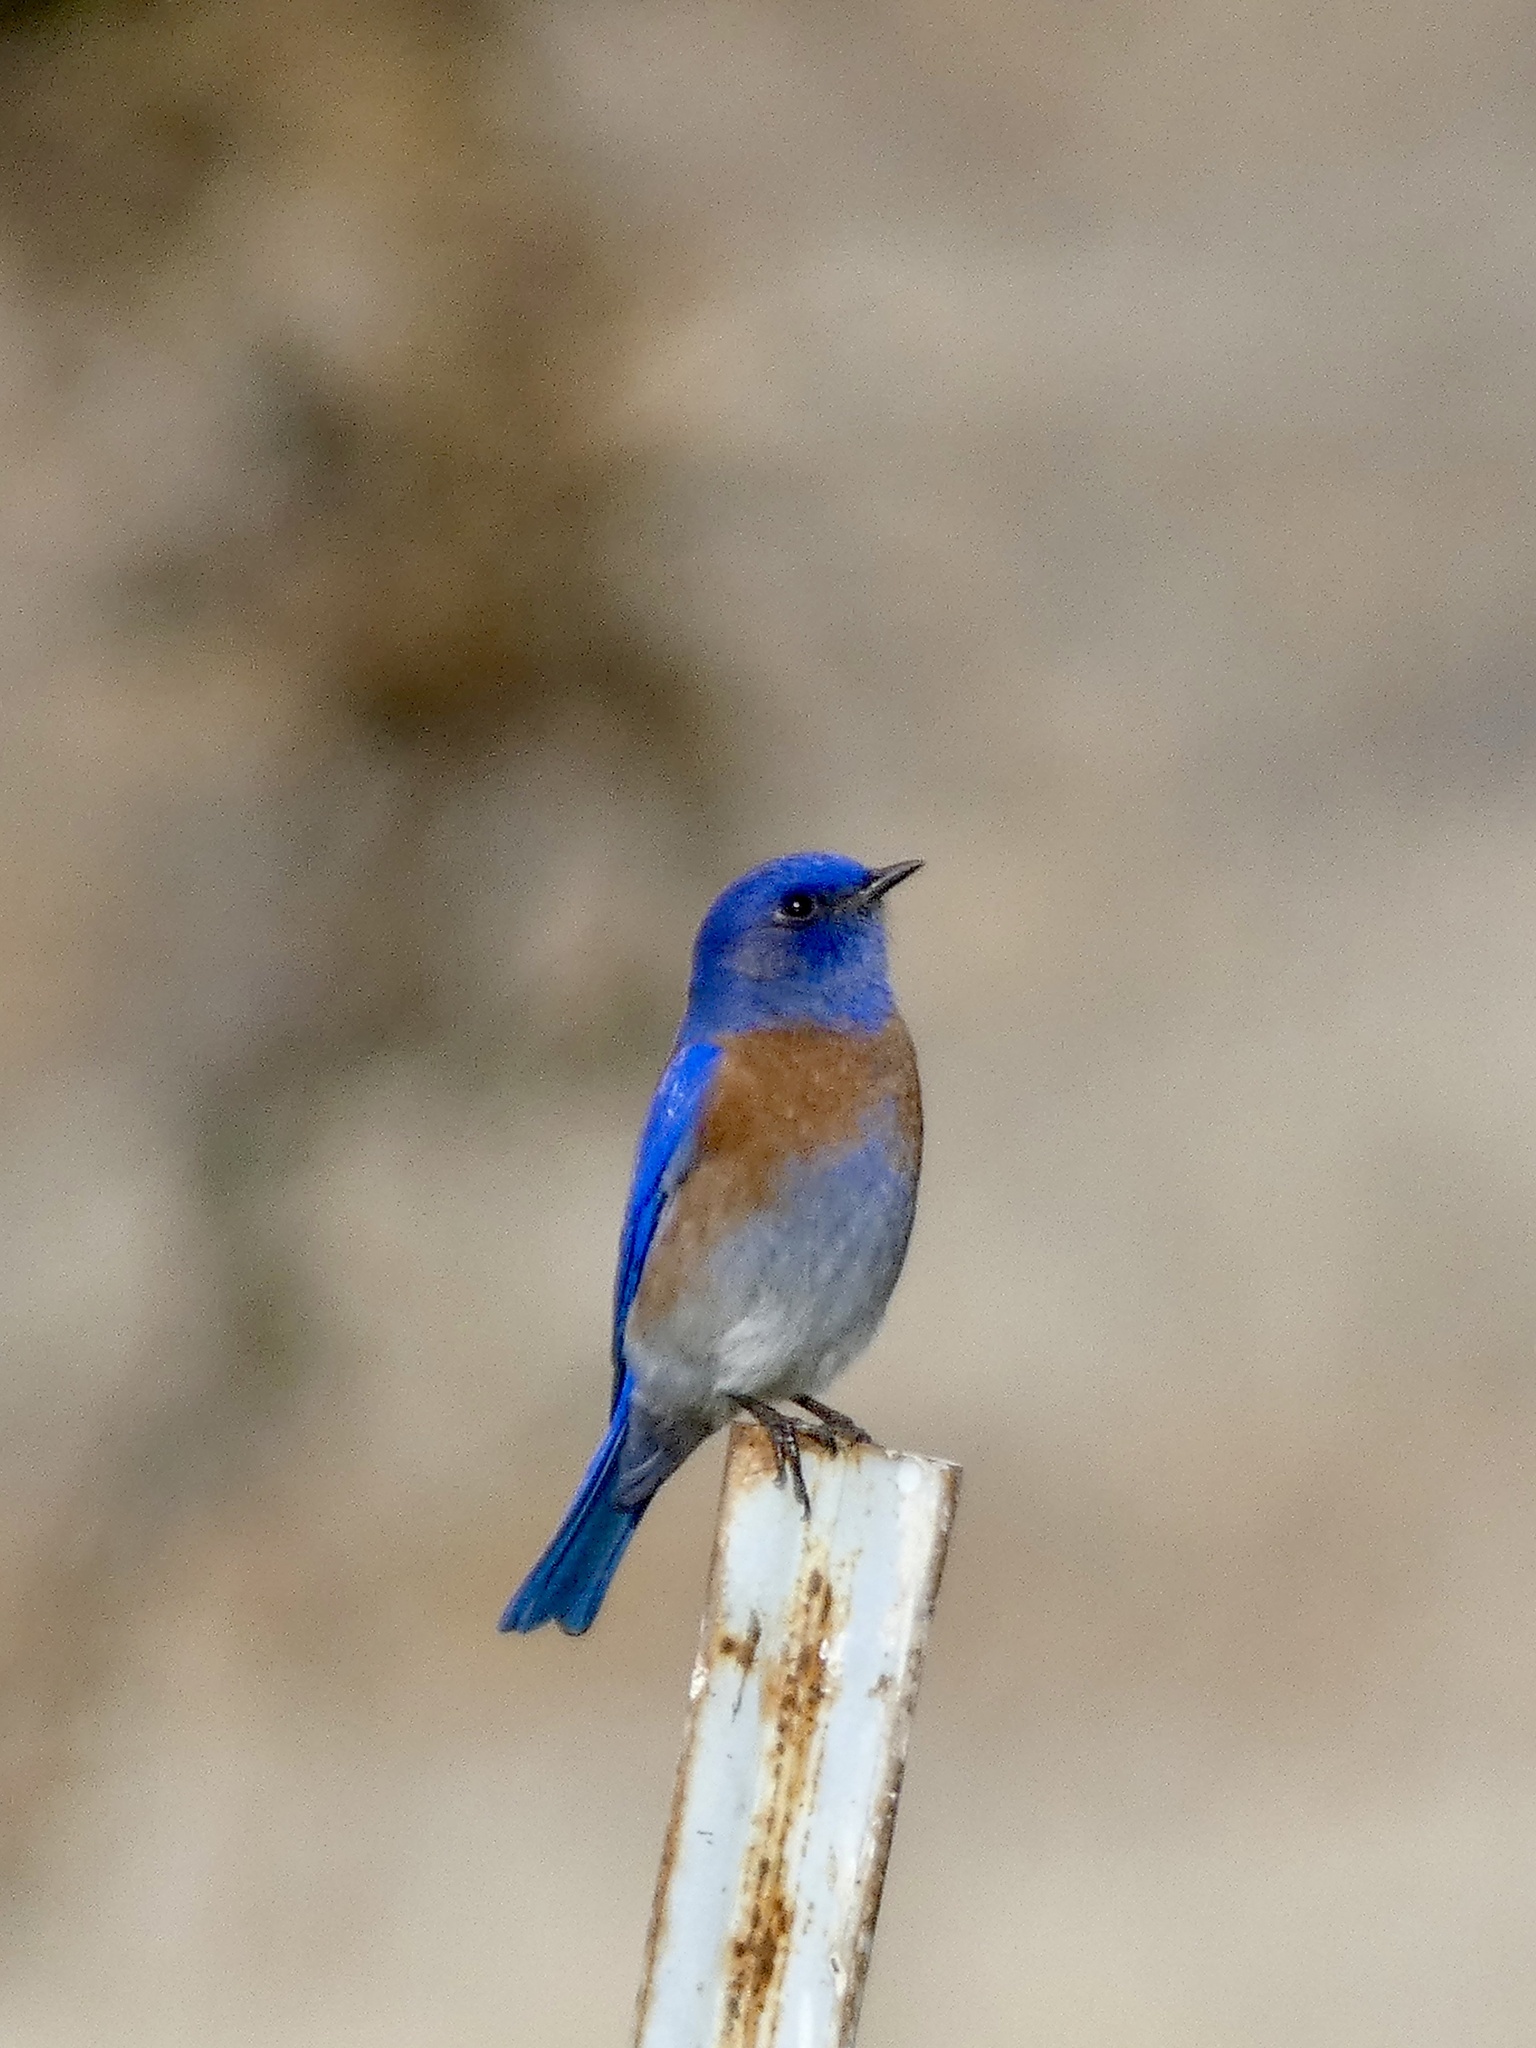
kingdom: Animalia
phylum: Chordata
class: Aves
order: Passeriformes
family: Turdidae
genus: Sialia
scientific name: Sialia mexicana
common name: Western bluebird
